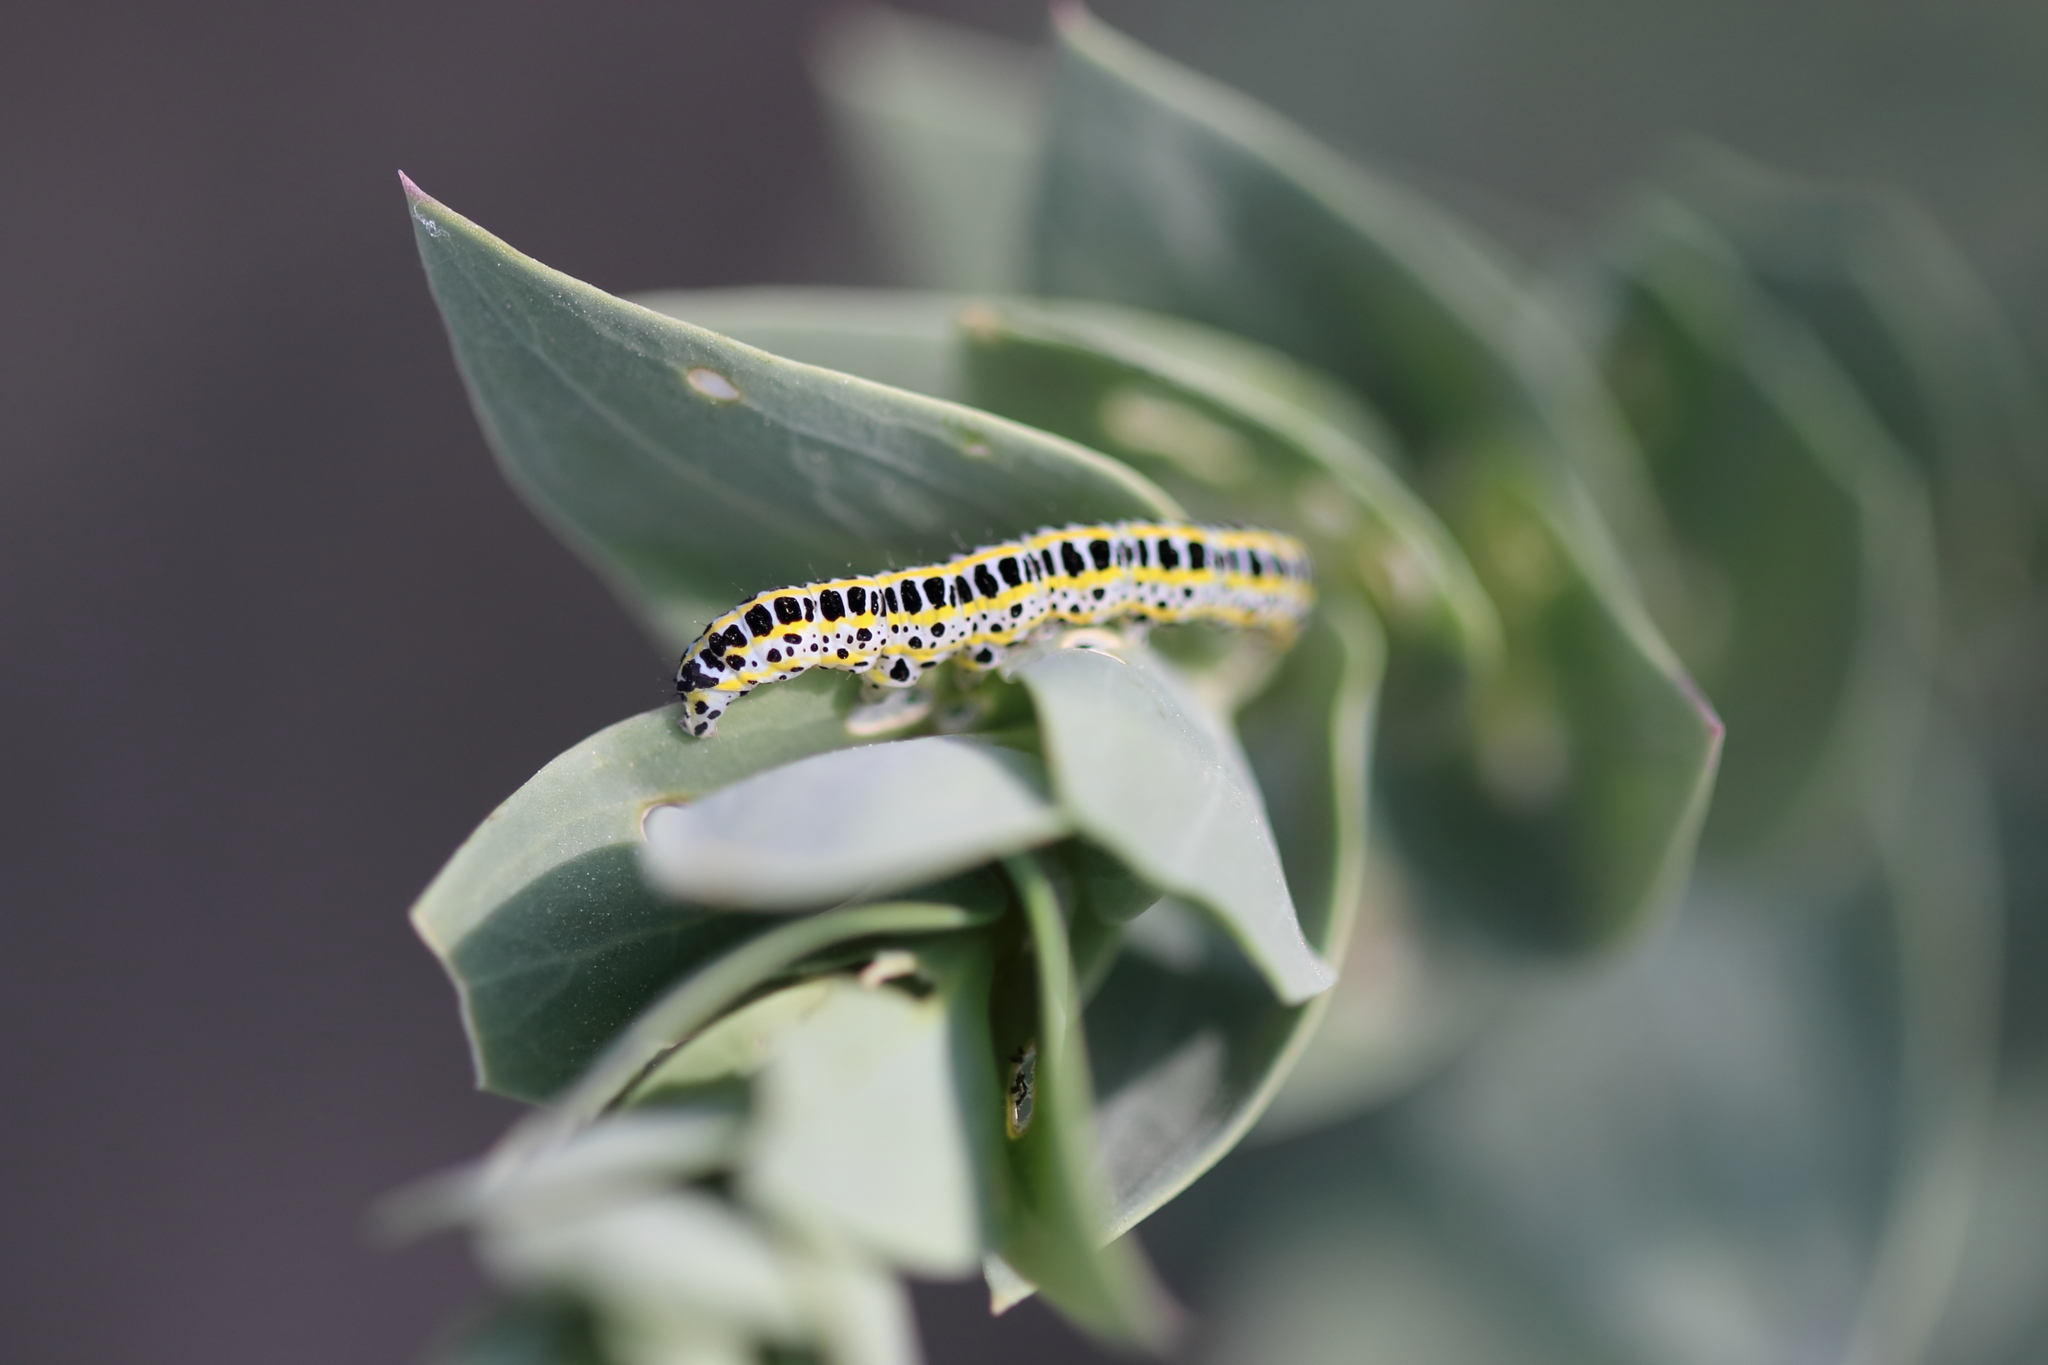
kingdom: Animalia
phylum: Arthropoda
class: Insecta
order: Lepidoptera
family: Noctuidae
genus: Calophasia
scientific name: Calophasia lunula
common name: Toadflax brocade
